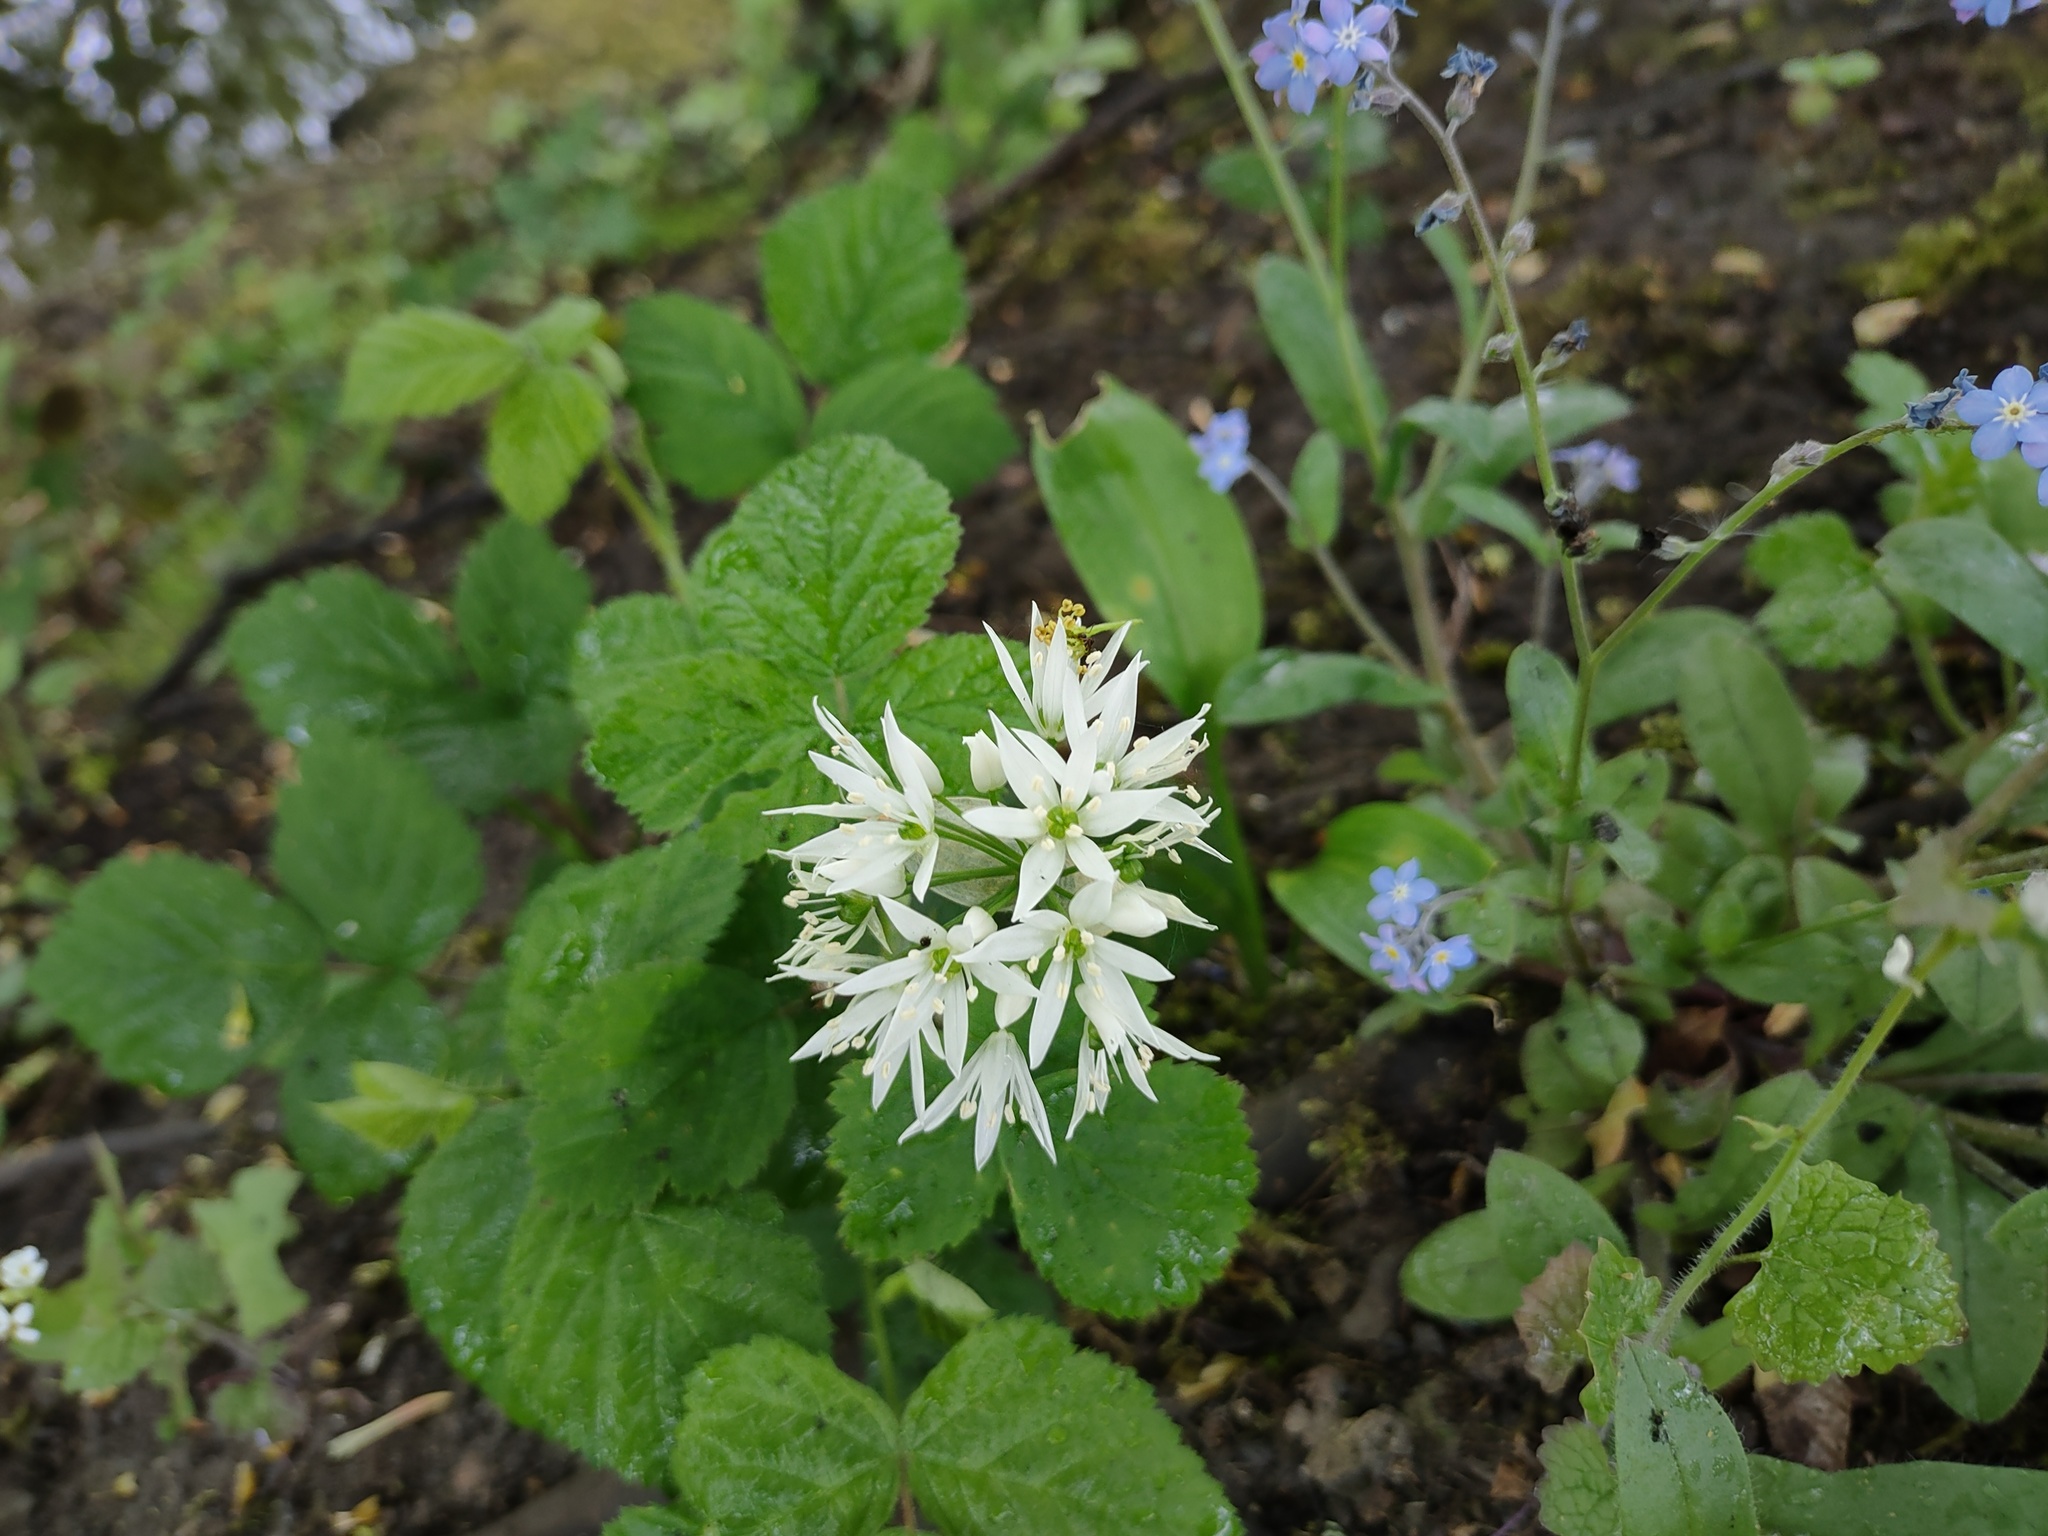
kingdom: Plantae
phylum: Tracheophyta
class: Liliopsida
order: Asparagales
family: Amaryllidaceae
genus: Allium
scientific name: Allium ursinum
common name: Ramsons
